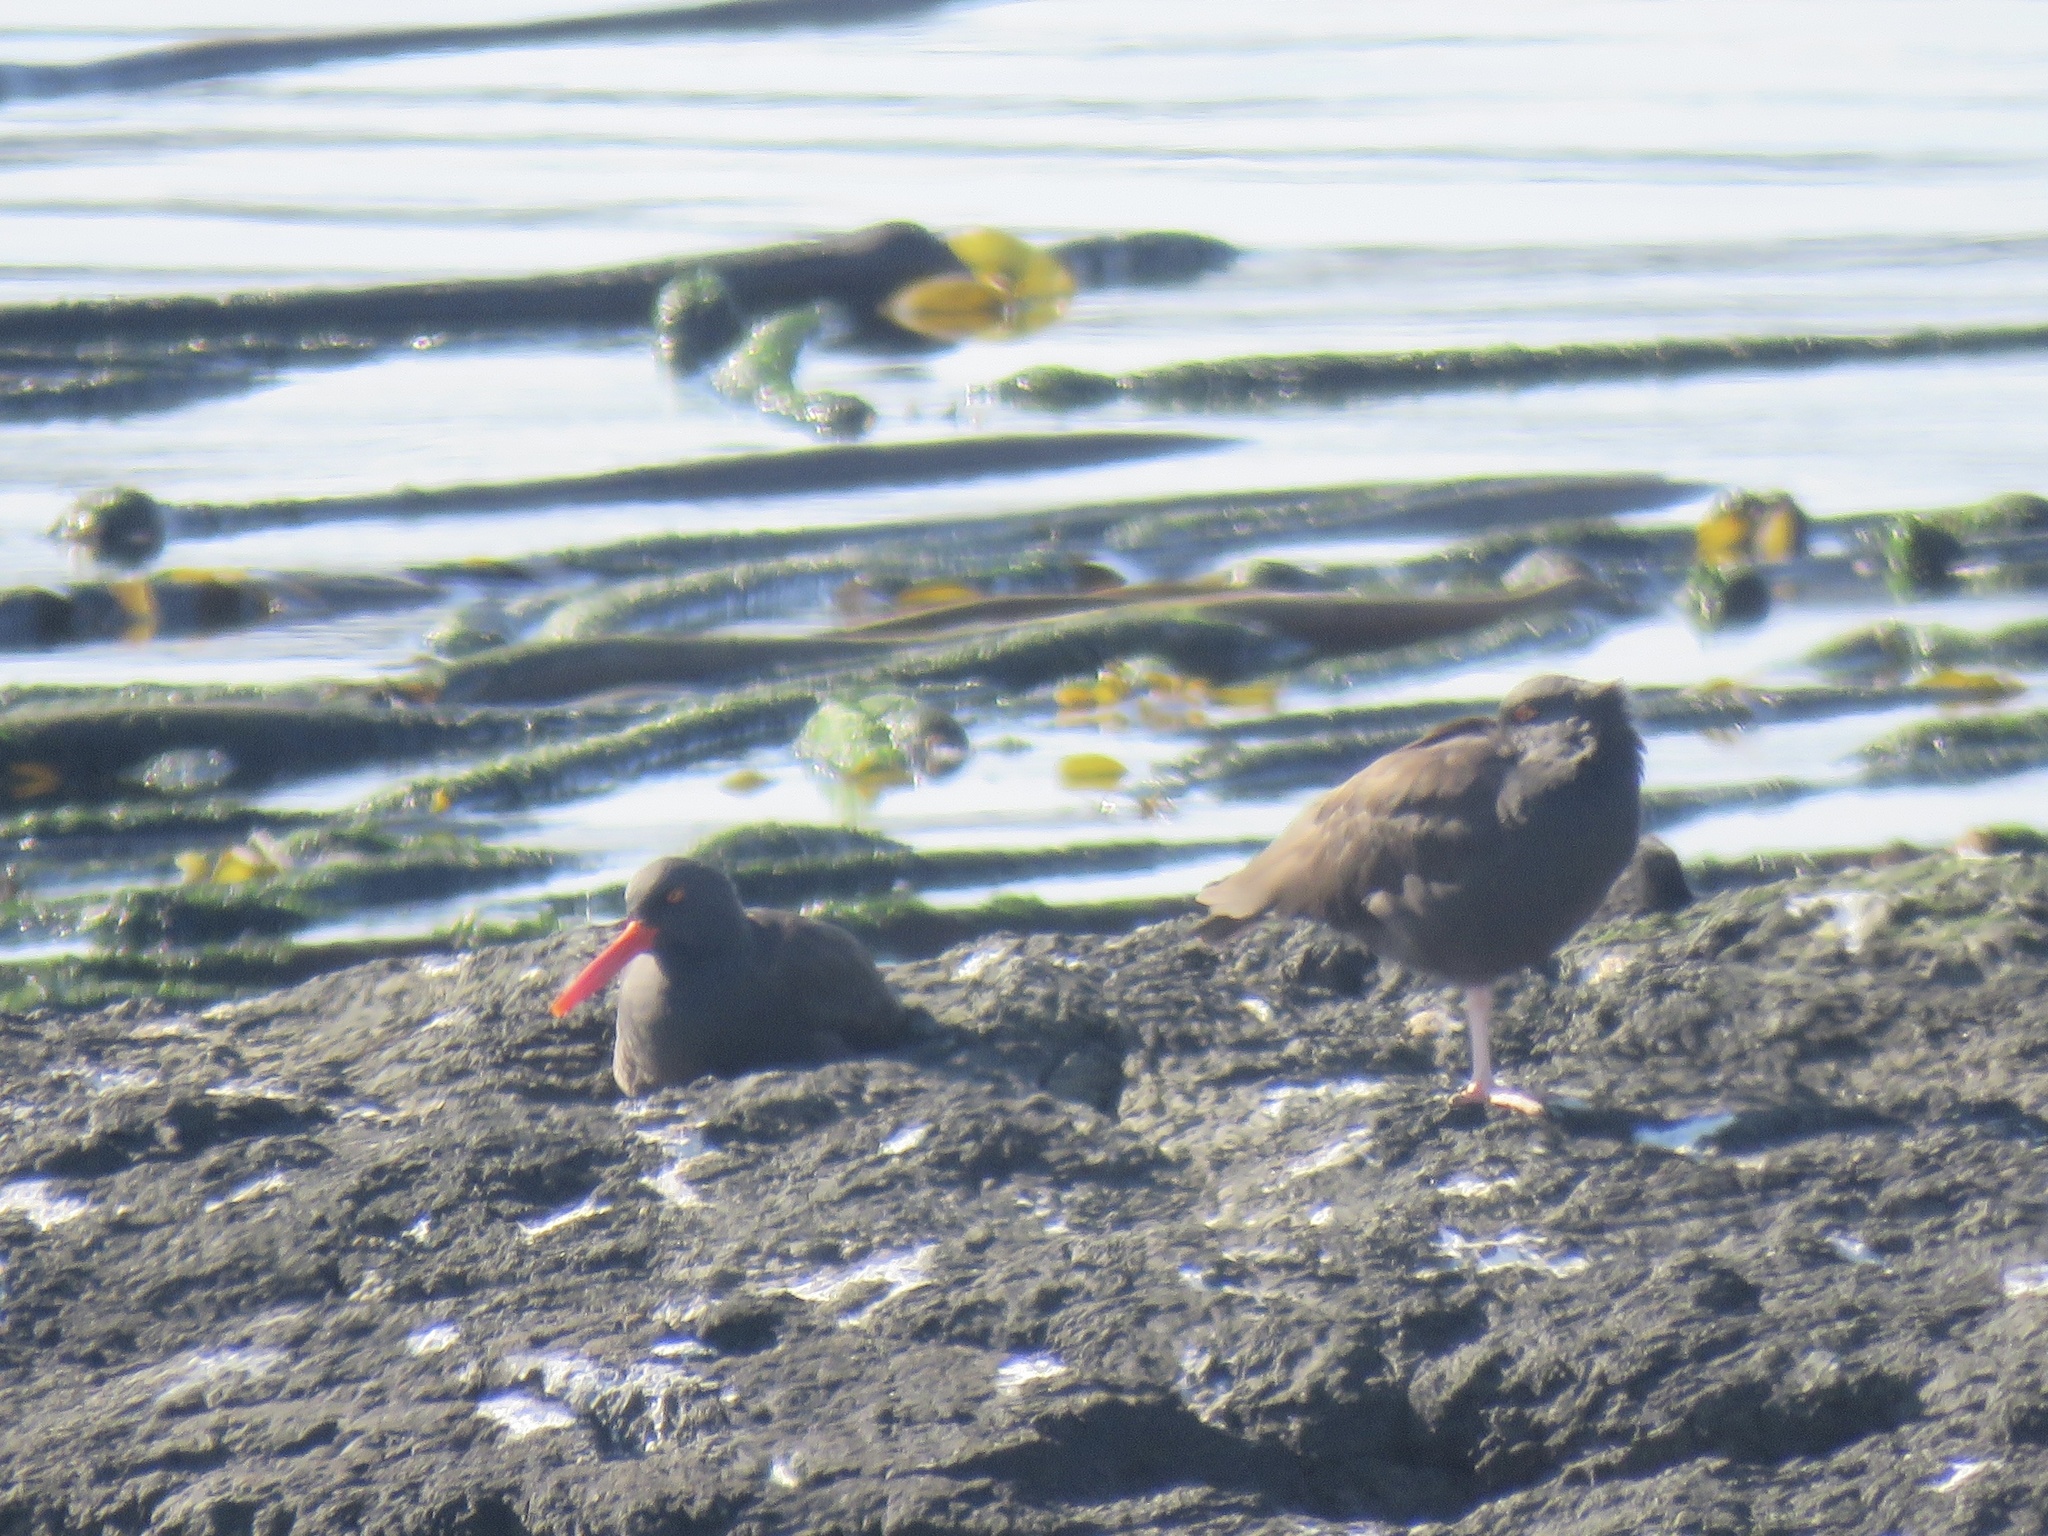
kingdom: Animalia
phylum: Chordata
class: Aves
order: Charadriiformes
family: Haematopodidae
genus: Haematopus
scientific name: Haematopus bachmani
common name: Black oystercatcher
